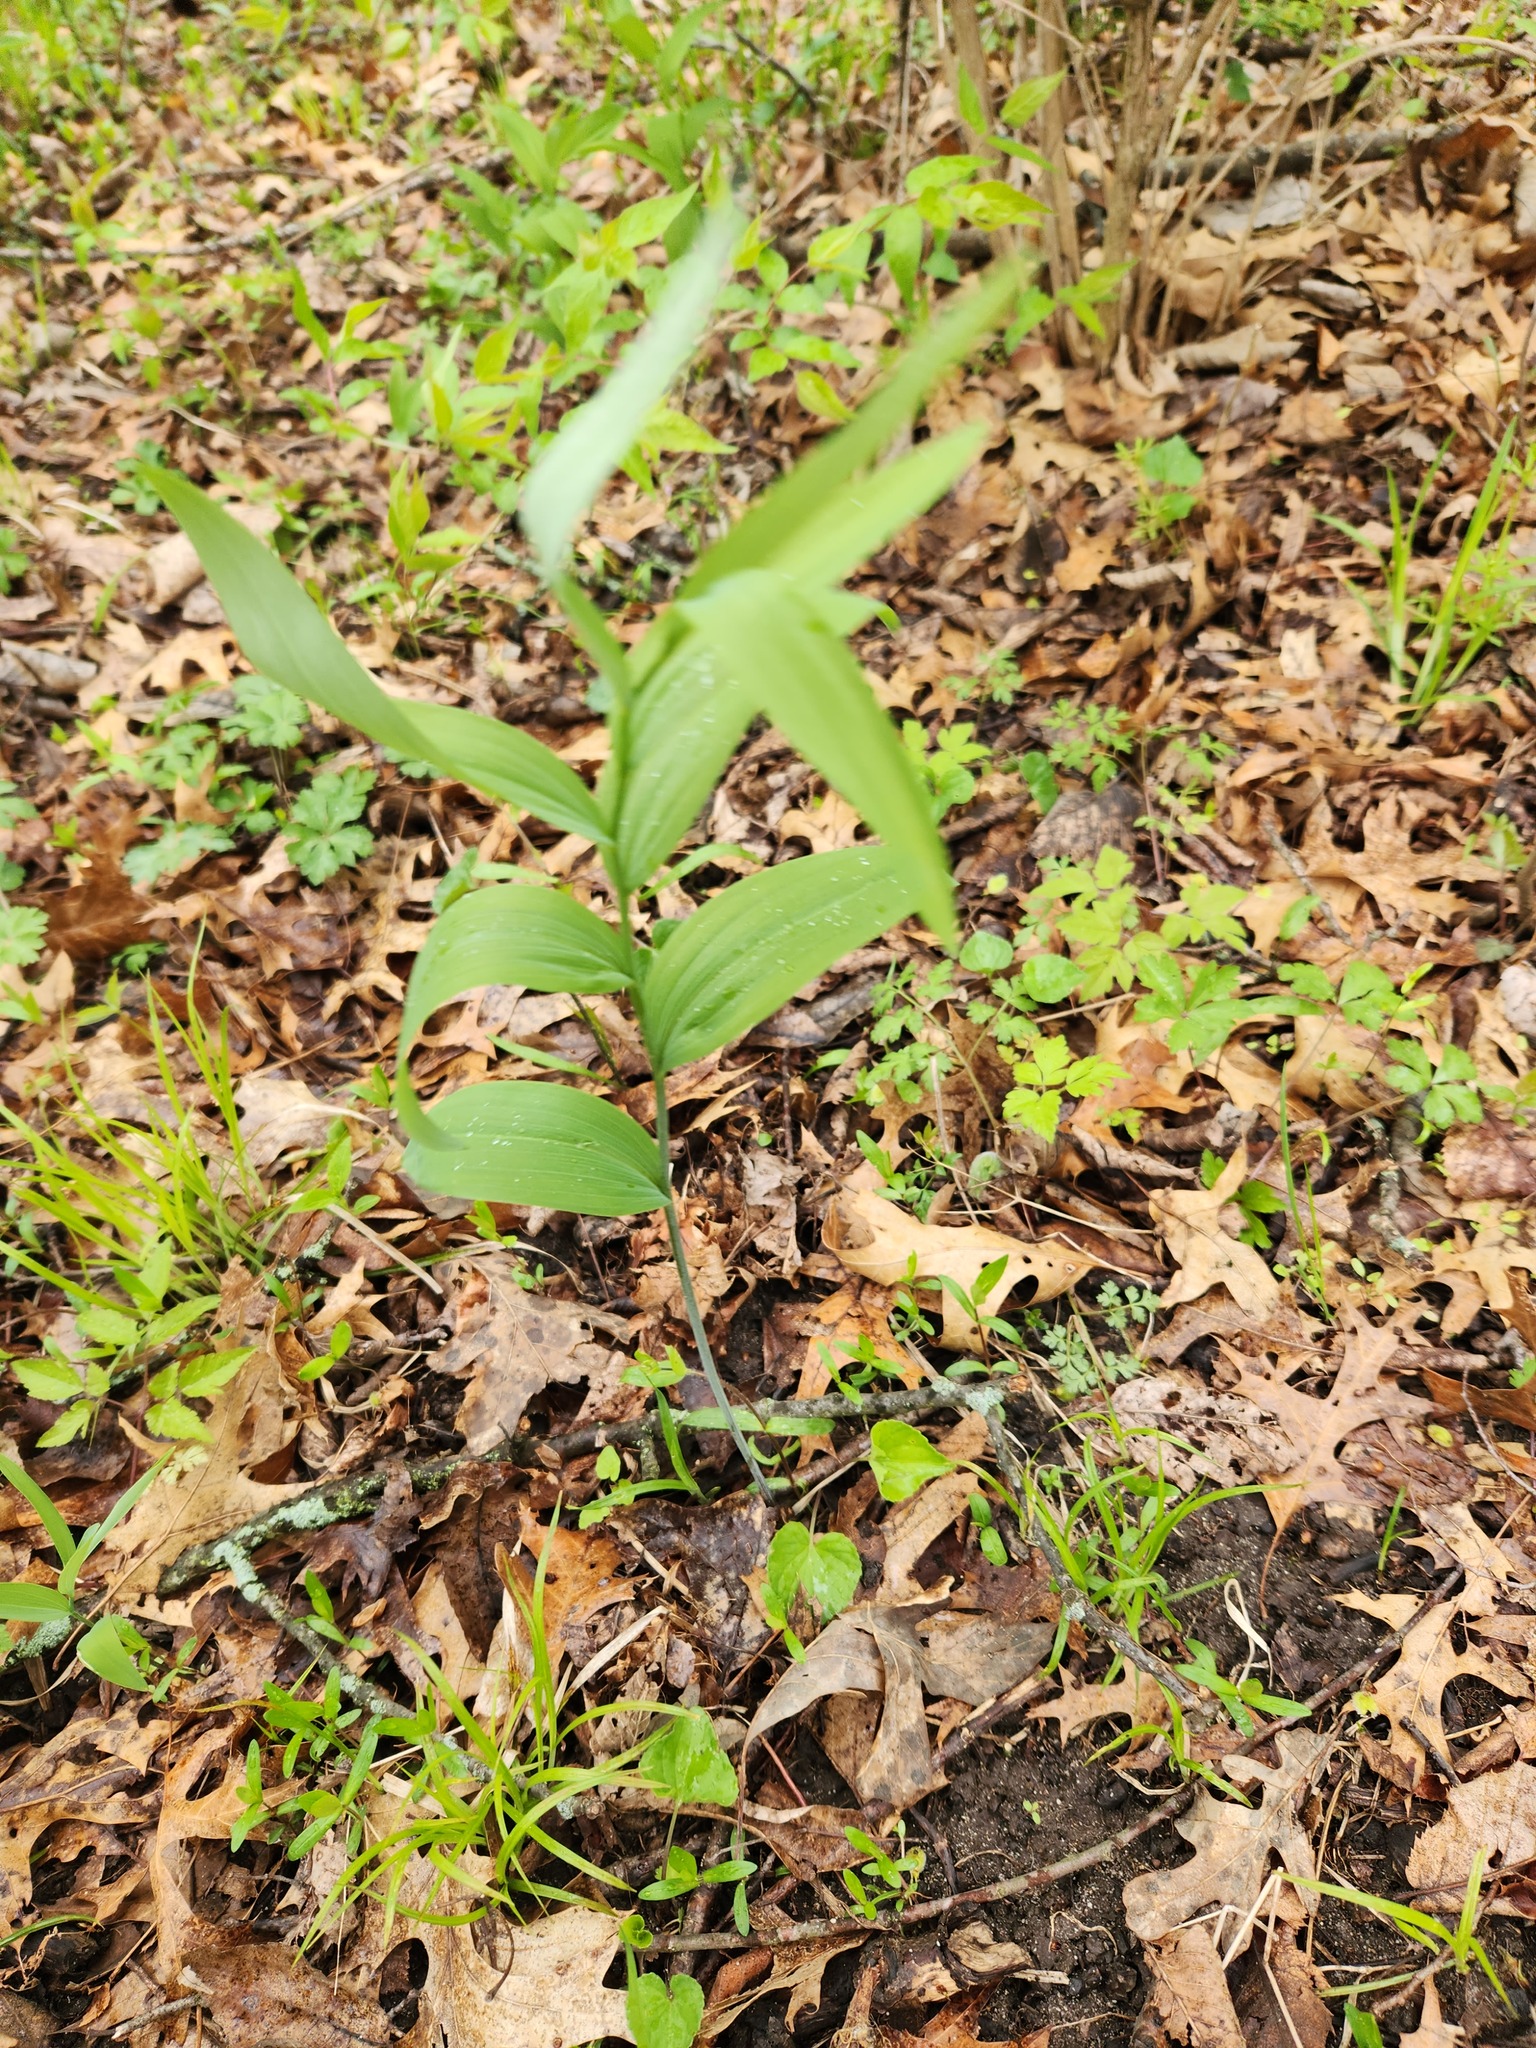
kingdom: Plantae
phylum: Tracheophyta
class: Liliopsida
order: Asparagales
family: Asparagaceae
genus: Polygonatum
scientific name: Polygonatum biflorum
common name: American solomon's-seal
